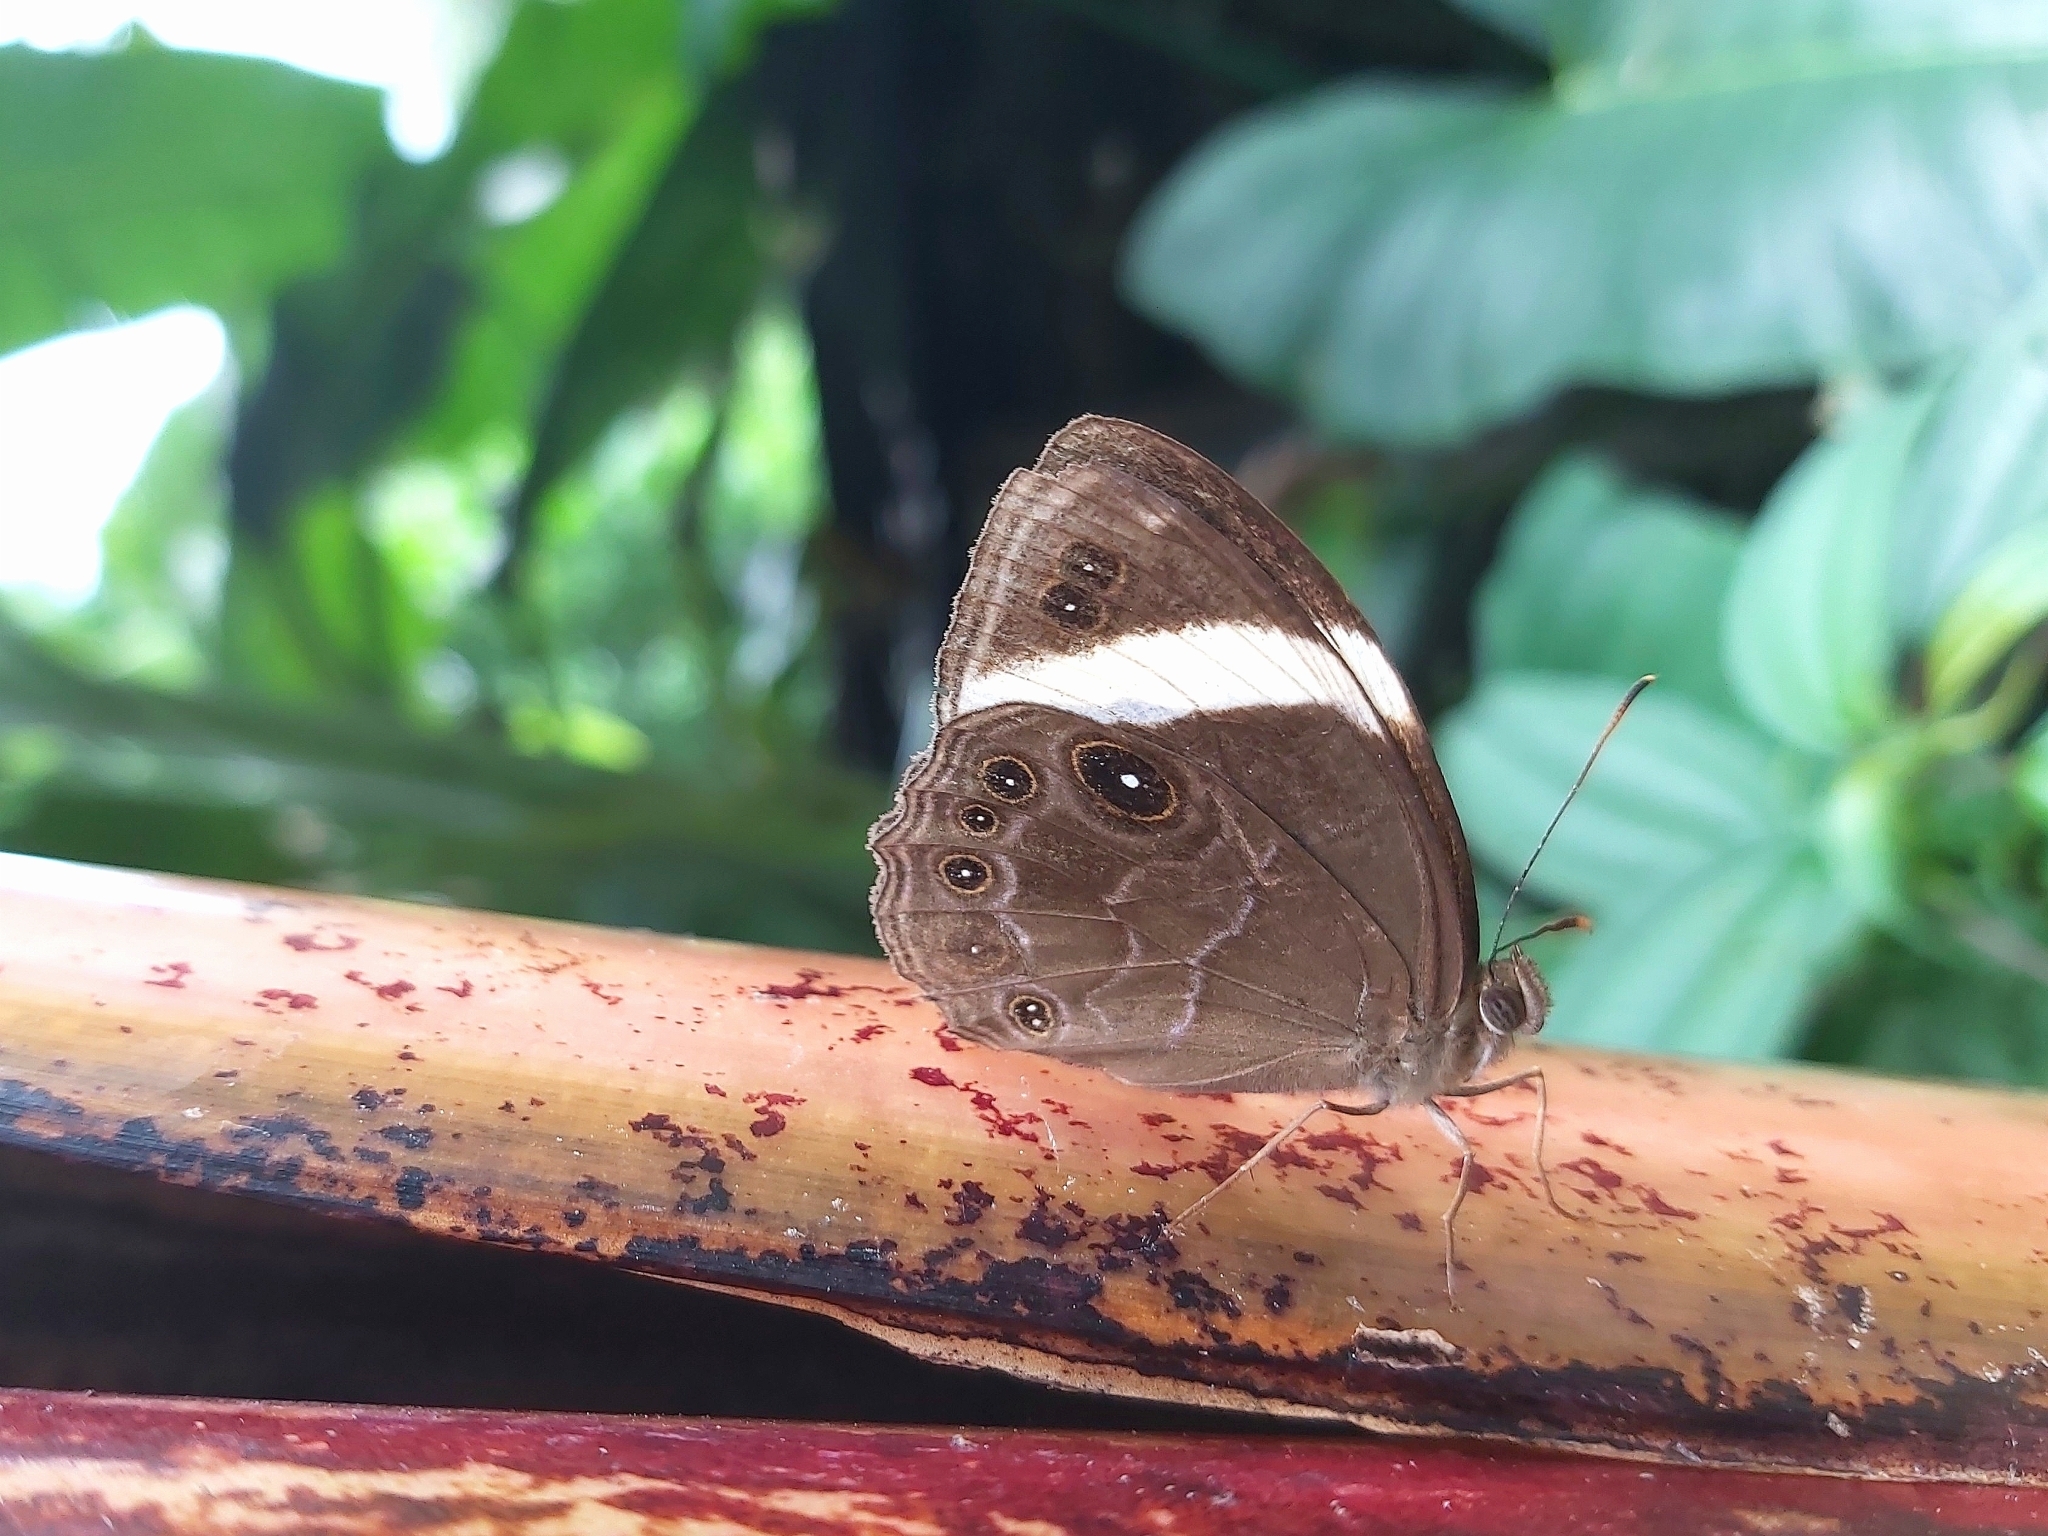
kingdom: Animalia
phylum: Arthropoda
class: Insecta
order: Lepidoptera
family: Nymphalidae
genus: Lethe
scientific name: Lethe verma
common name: Straight-banded treebrown
